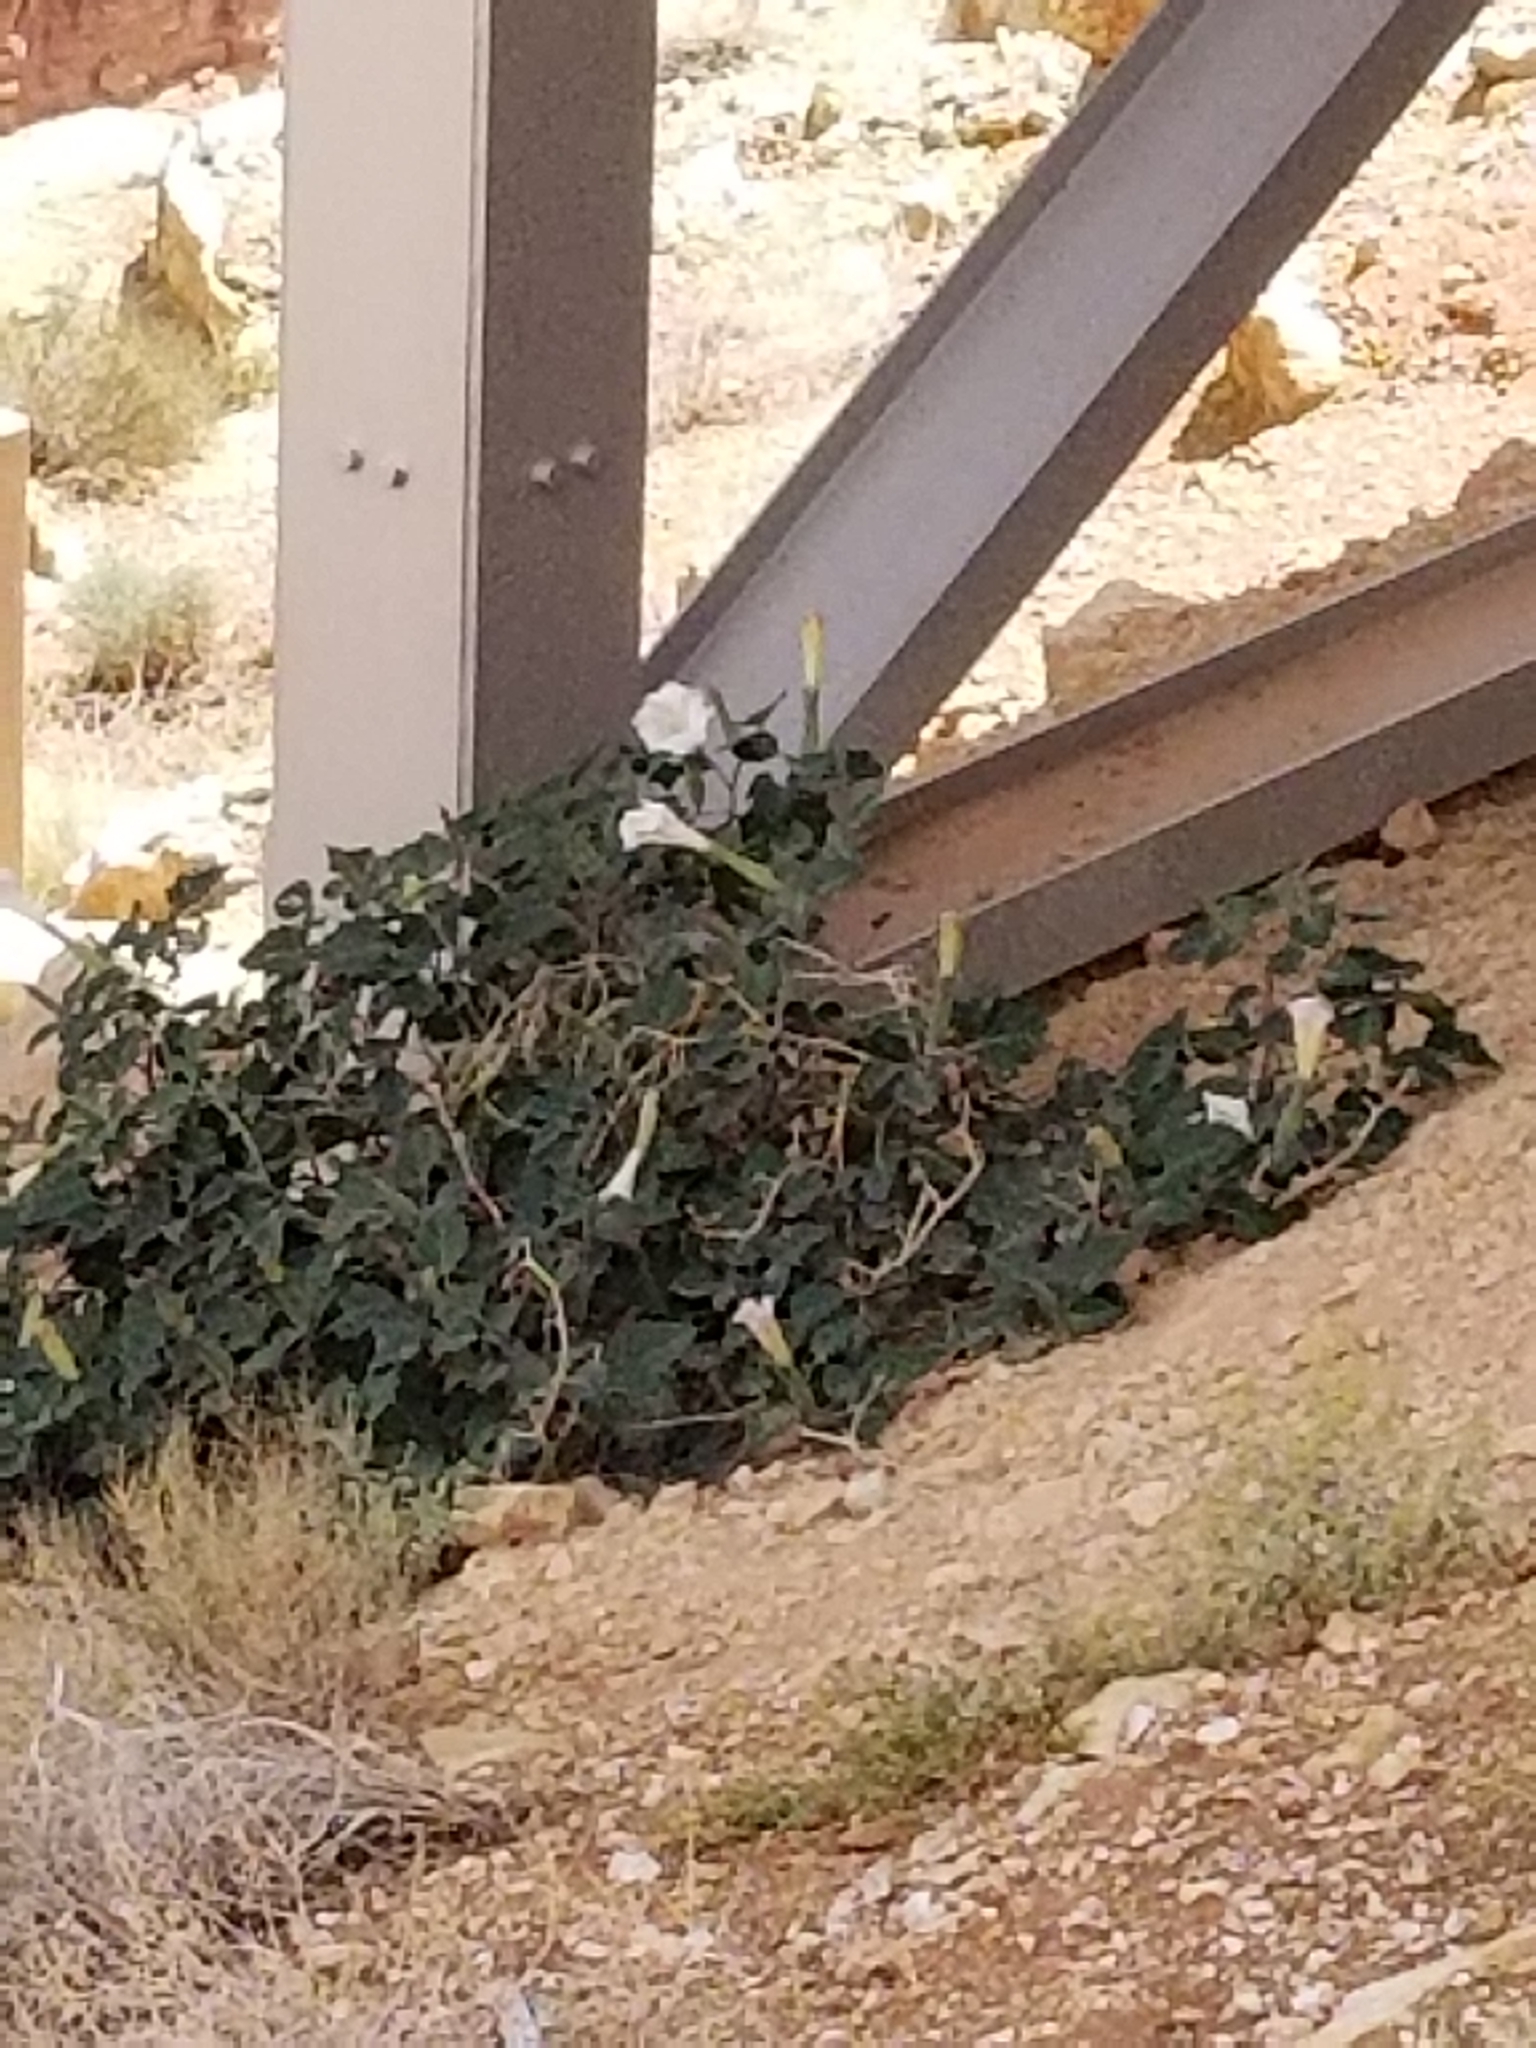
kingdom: Plantae
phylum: Tracheophyta
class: Magnoliopsida
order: Solanales
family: Solanaceae
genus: Datura
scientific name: Datura wrightii
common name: Sacred thorn-apple
